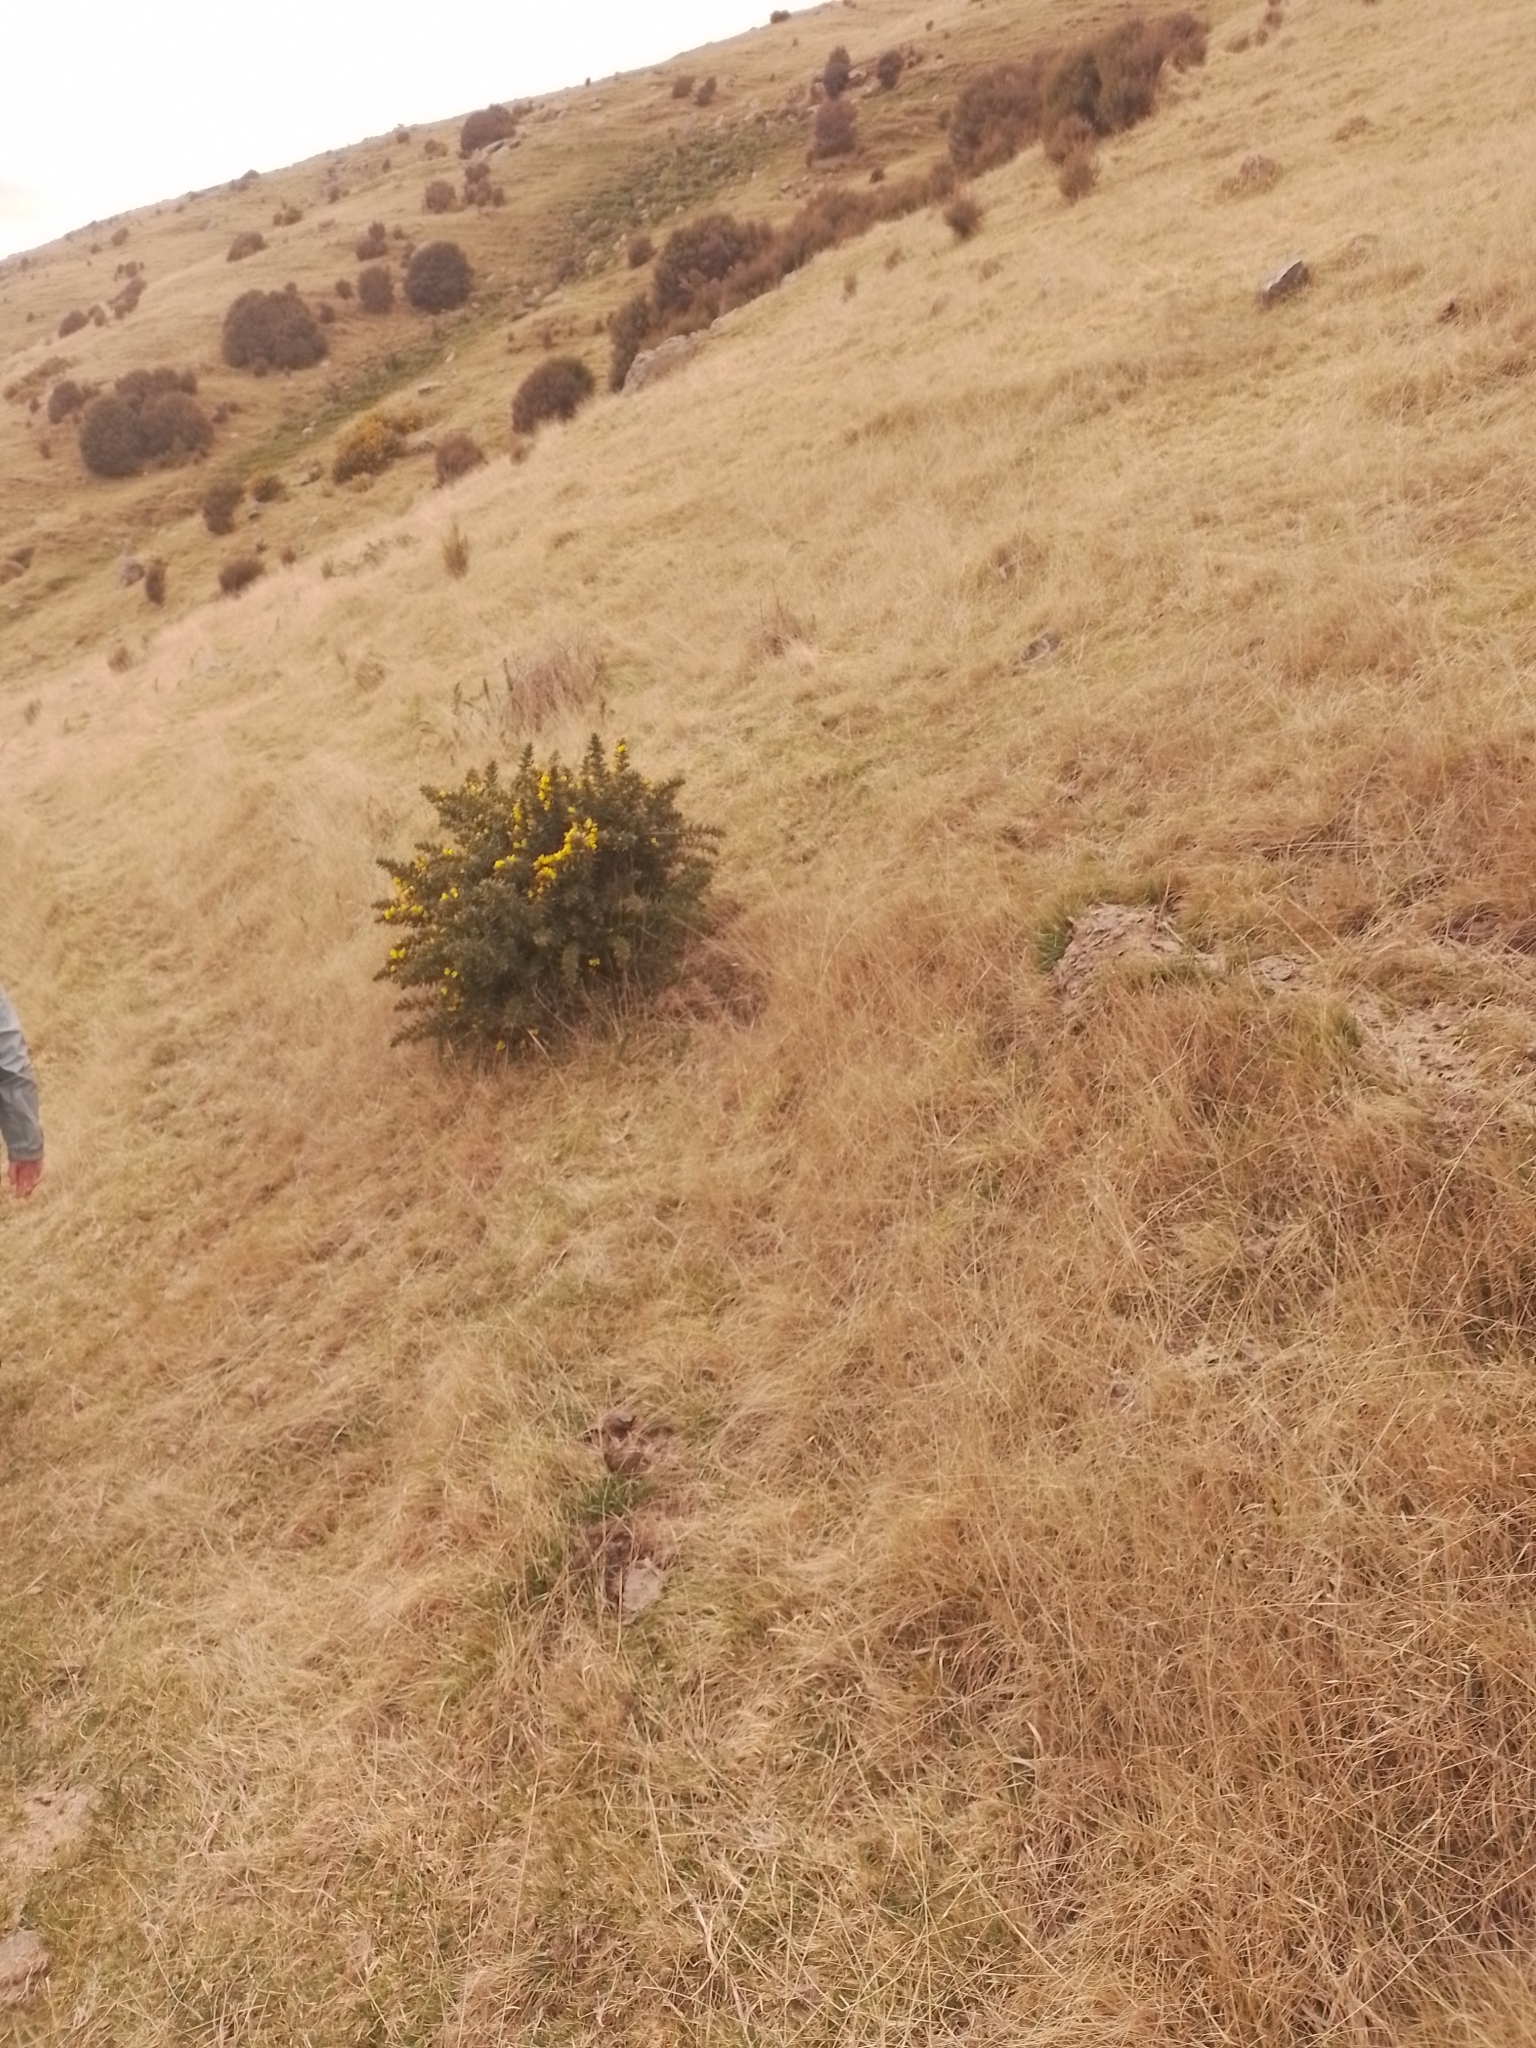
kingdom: Plantae
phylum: Tracheophyta
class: Magnoliopsida
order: Fabales
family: Fabaceae
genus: Ulex
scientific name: Ulex europaeus
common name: Common gorse
